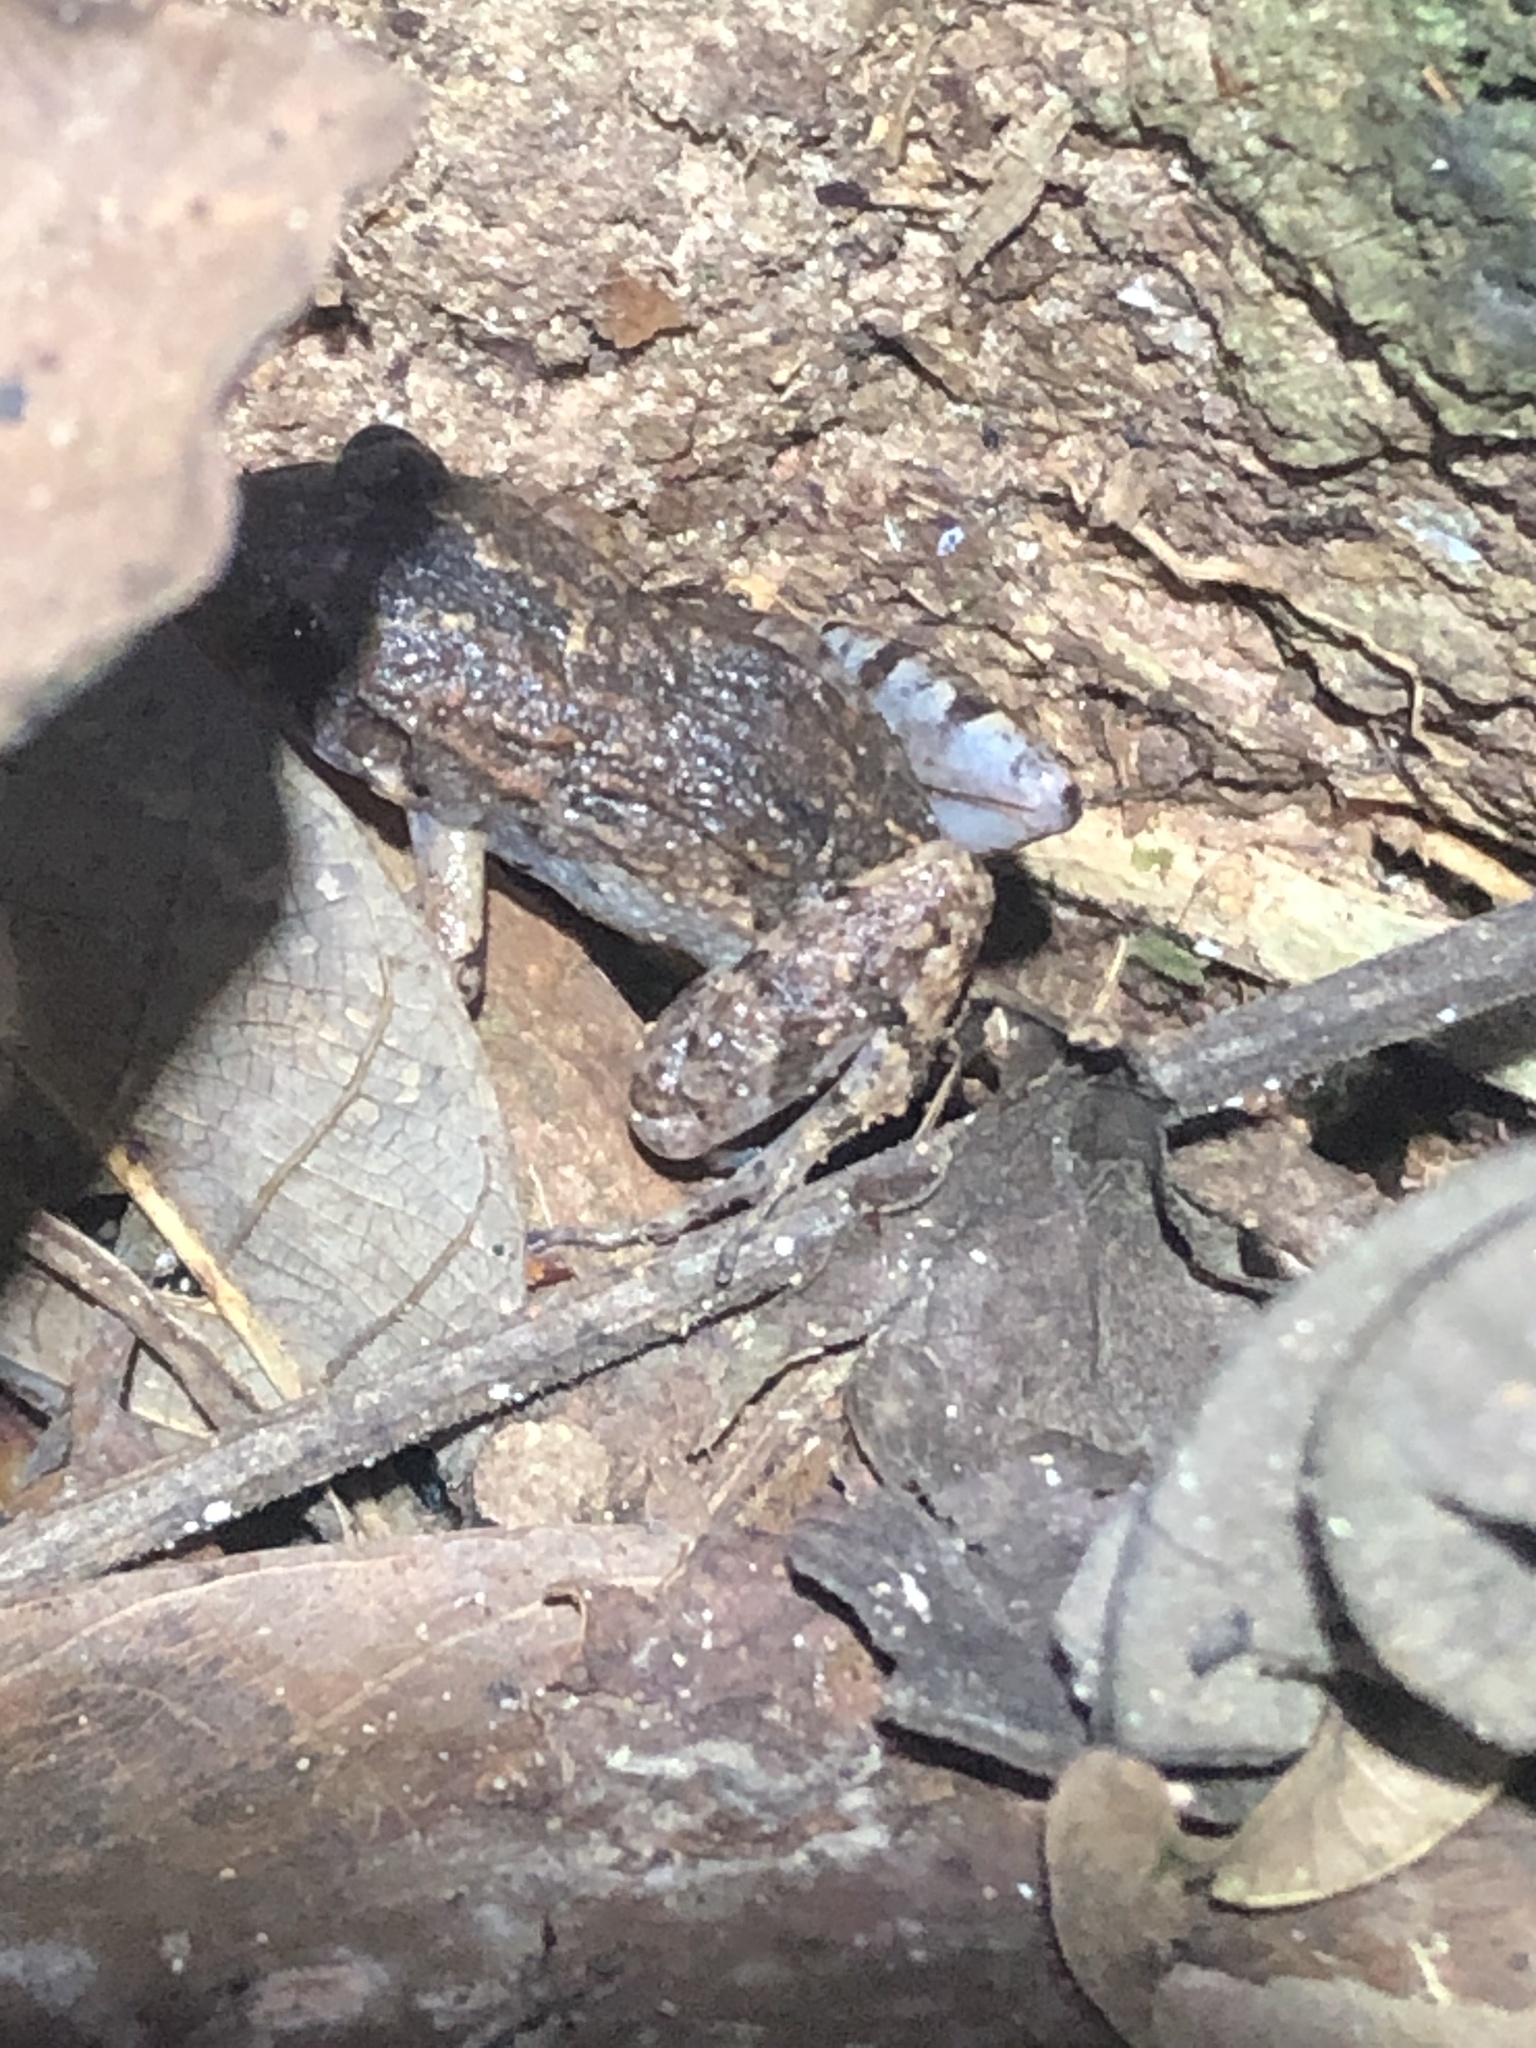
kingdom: Animalia
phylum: Chordata
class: Amphibia
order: Anura
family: Leptodactylidae
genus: Adenomera
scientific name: Adenomera andreae
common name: Lowland tropical bullfrog
